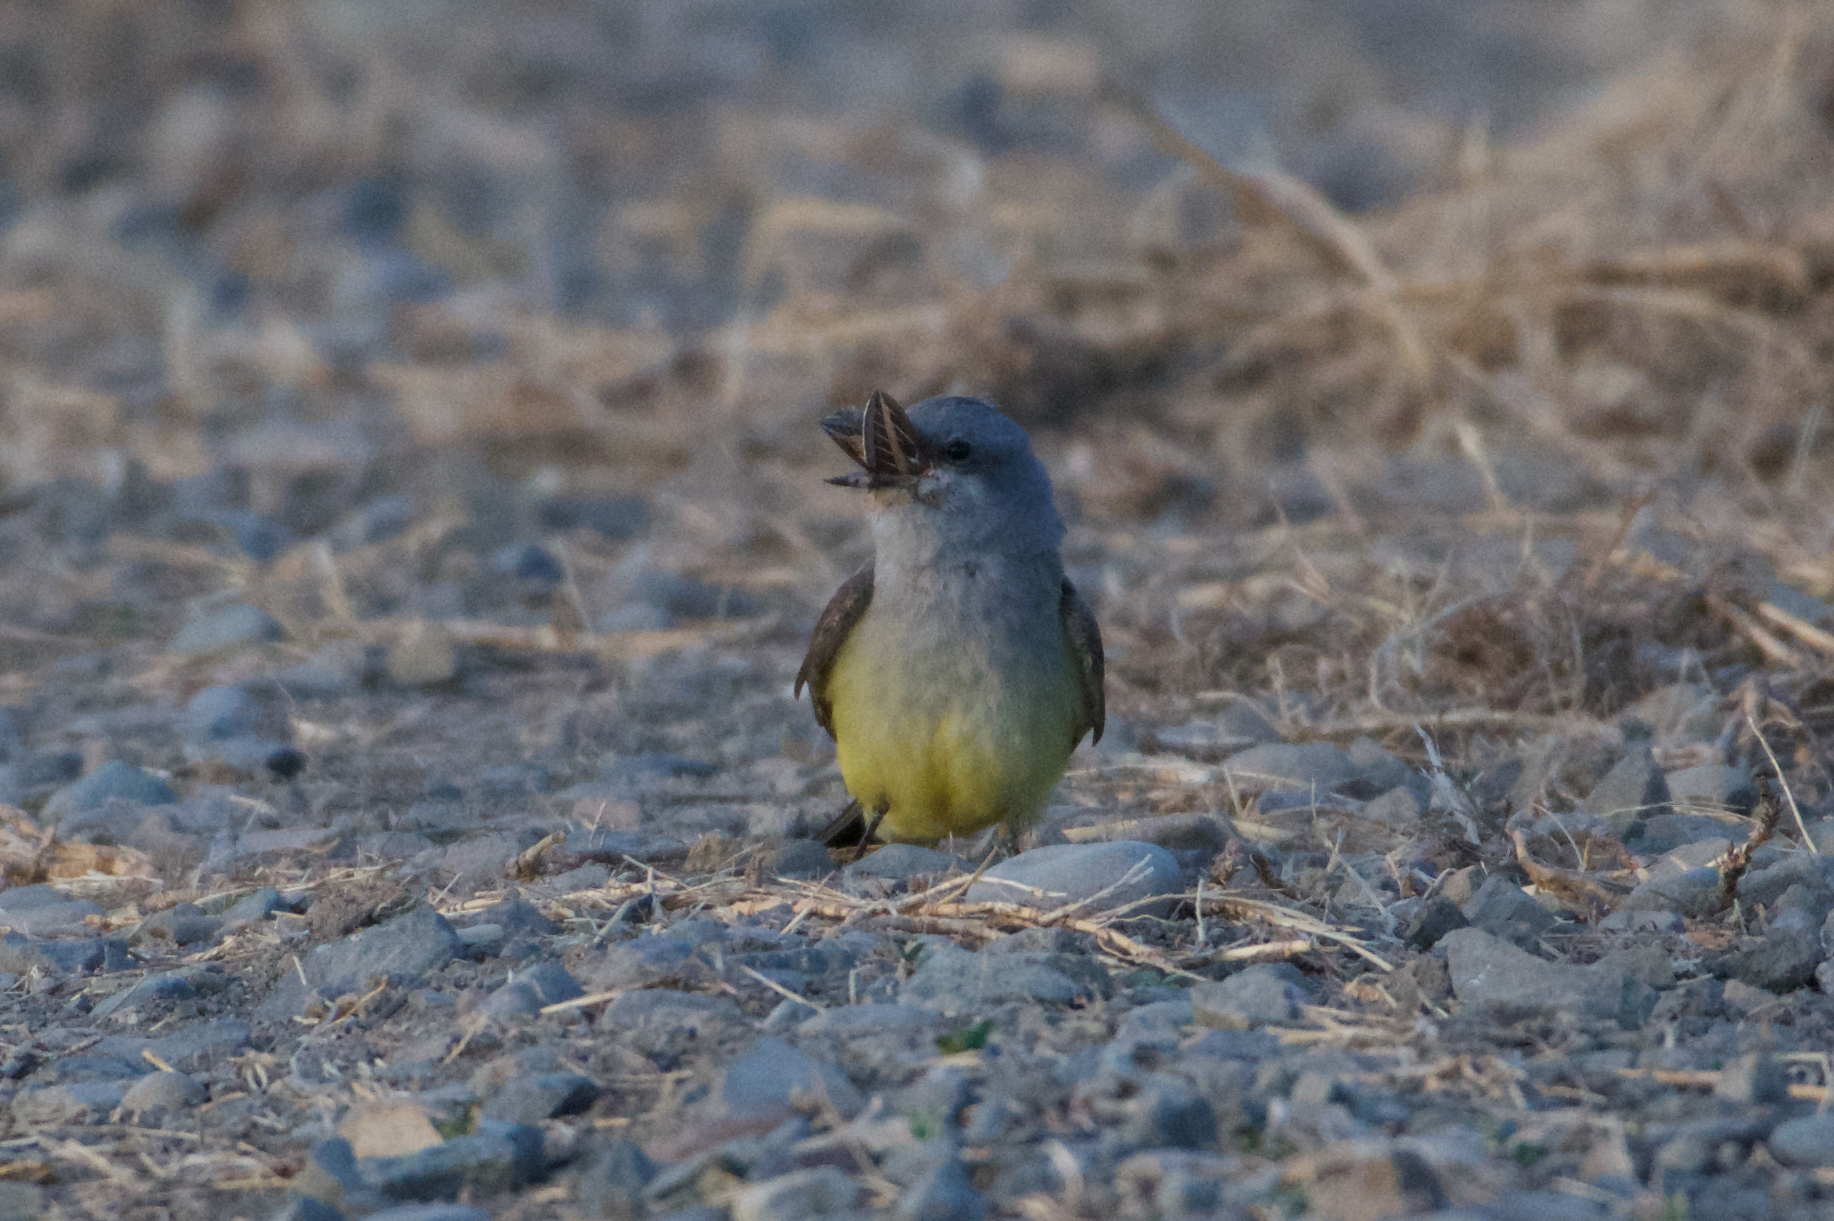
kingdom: Animalia
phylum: Chordata
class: Aves
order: Passeriformes
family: Tyrannidae
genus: Tyrannus
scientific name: Tyrannus verticalis
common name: Western kingbird
